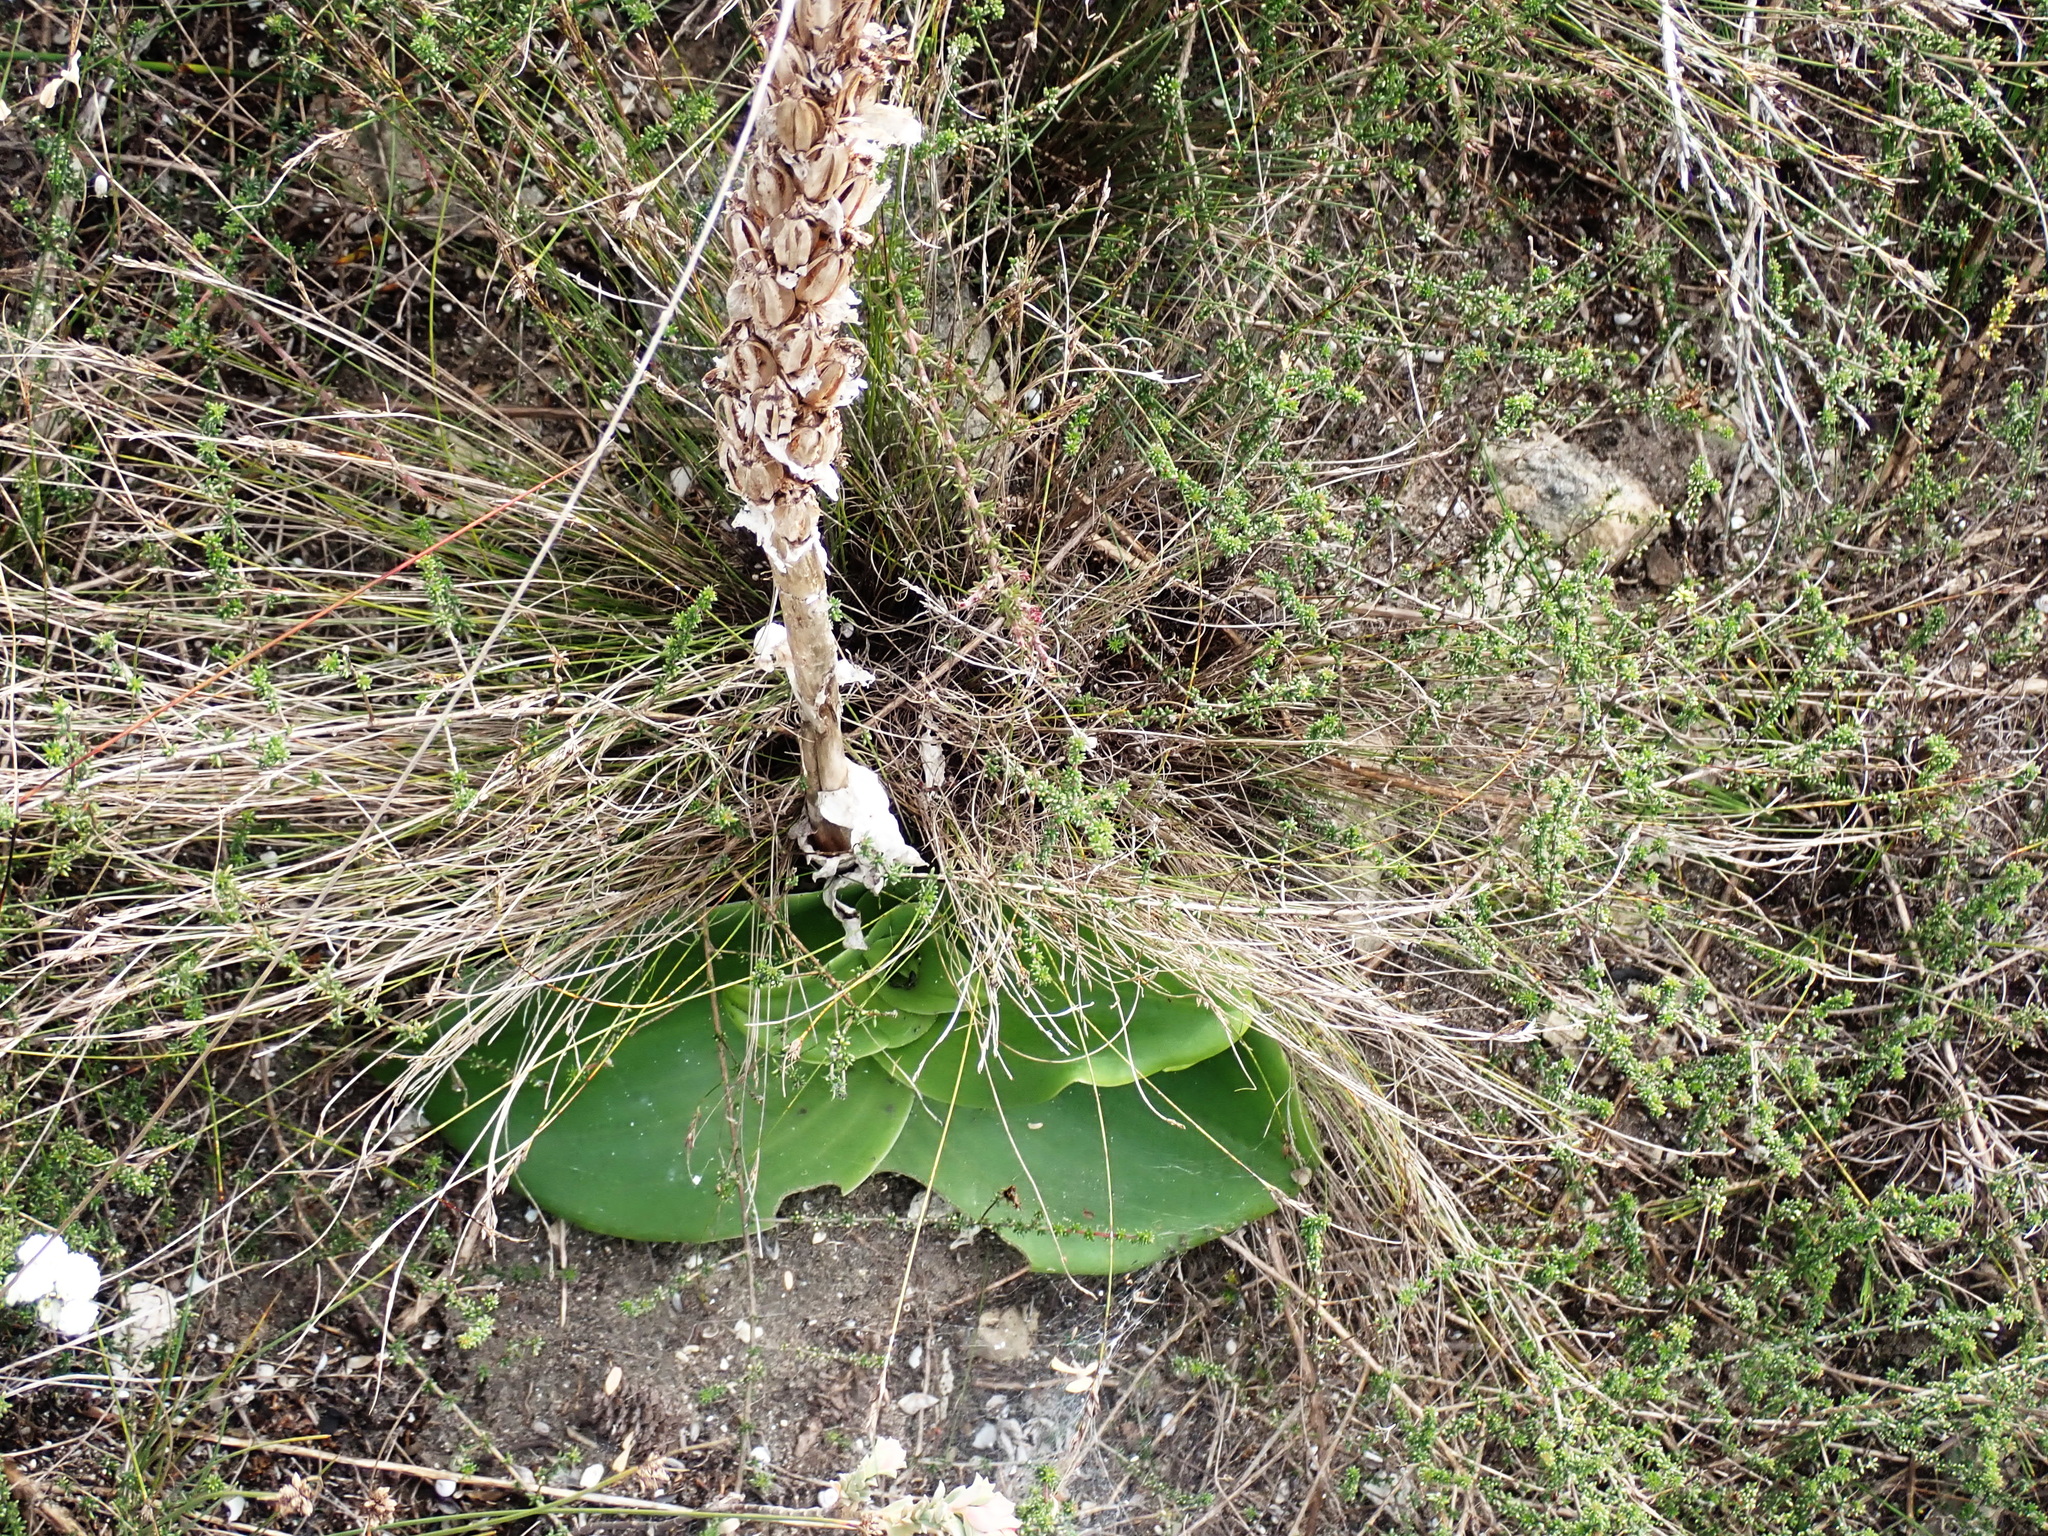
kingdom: Plantae
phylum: Tracheophyta
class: Liliopsida
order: Asparagales
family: Orchidaceae
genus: Satyrium
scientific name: Satyrium carneum
